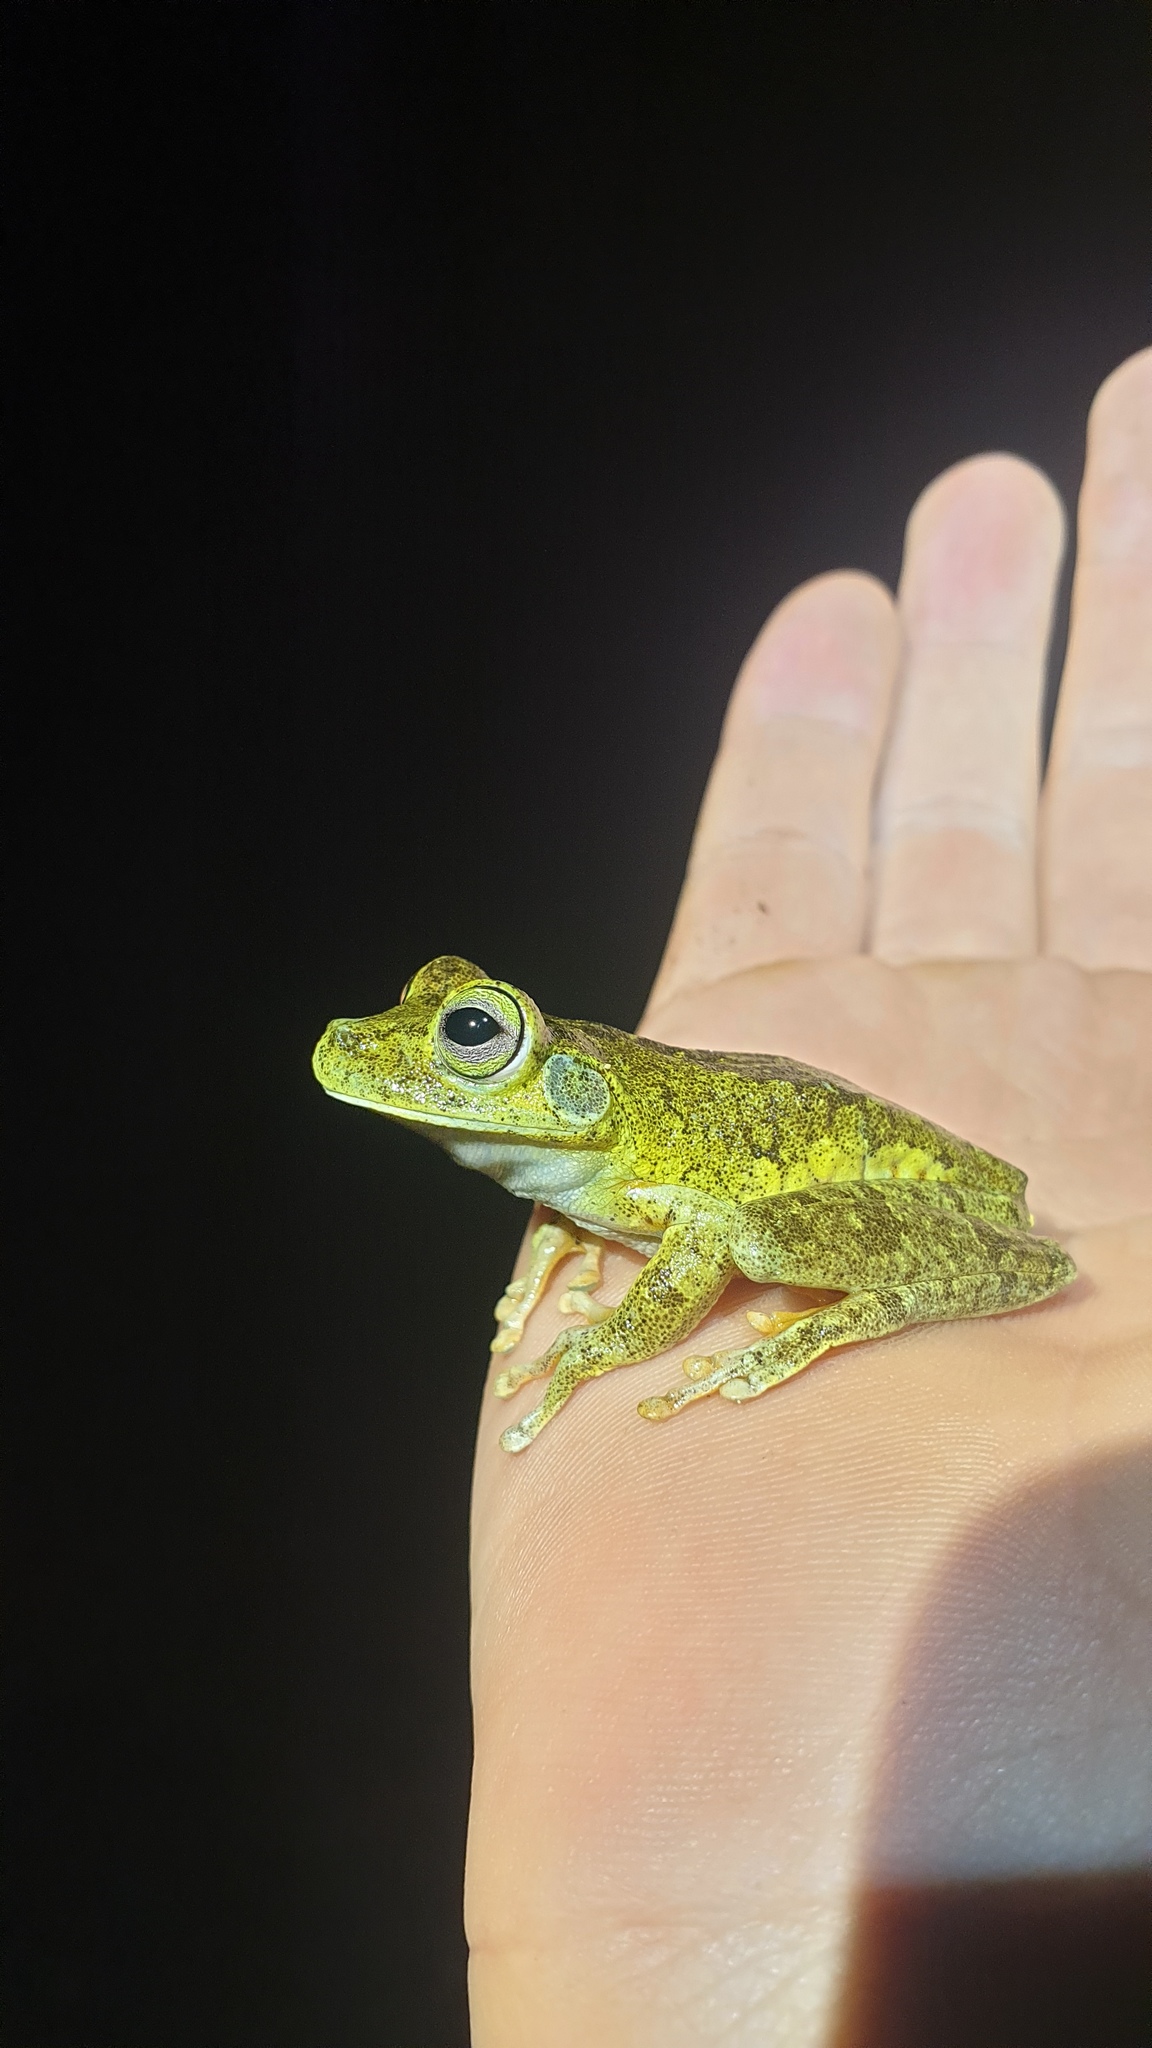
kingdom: Animalia
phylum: Chordata
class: Amphibia
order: Anura
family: Hylidae
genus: Boana
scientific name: Boana xerophylla
